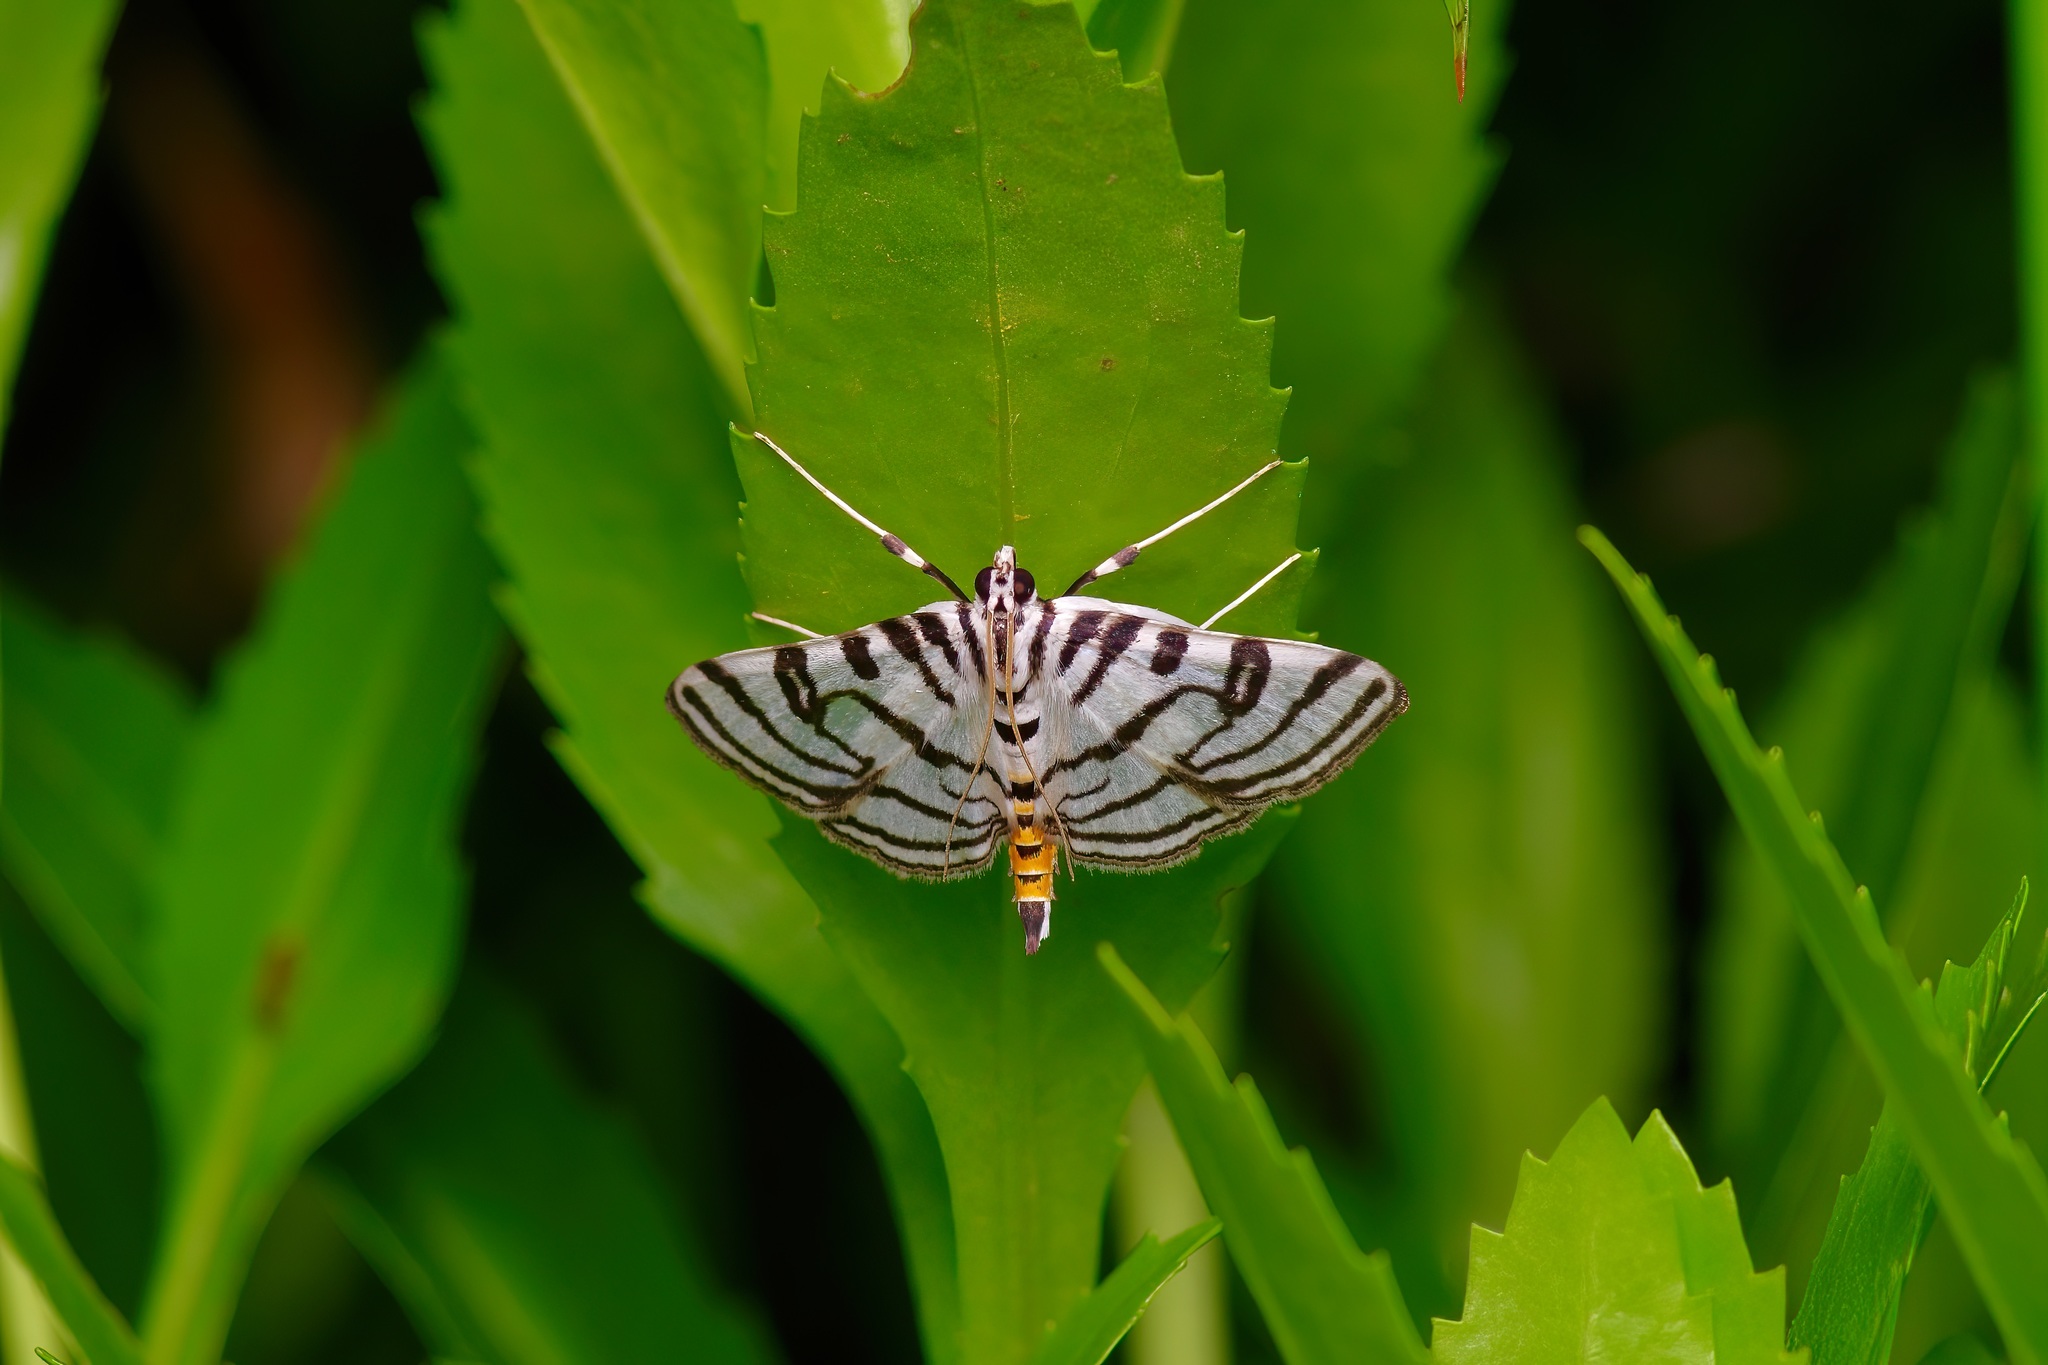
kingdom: Animalia
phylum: Arthropoda
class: Insecta
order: Lepidoptera
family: Crambidae
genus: Conchylodes
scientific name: Conchylodes ovulalis
